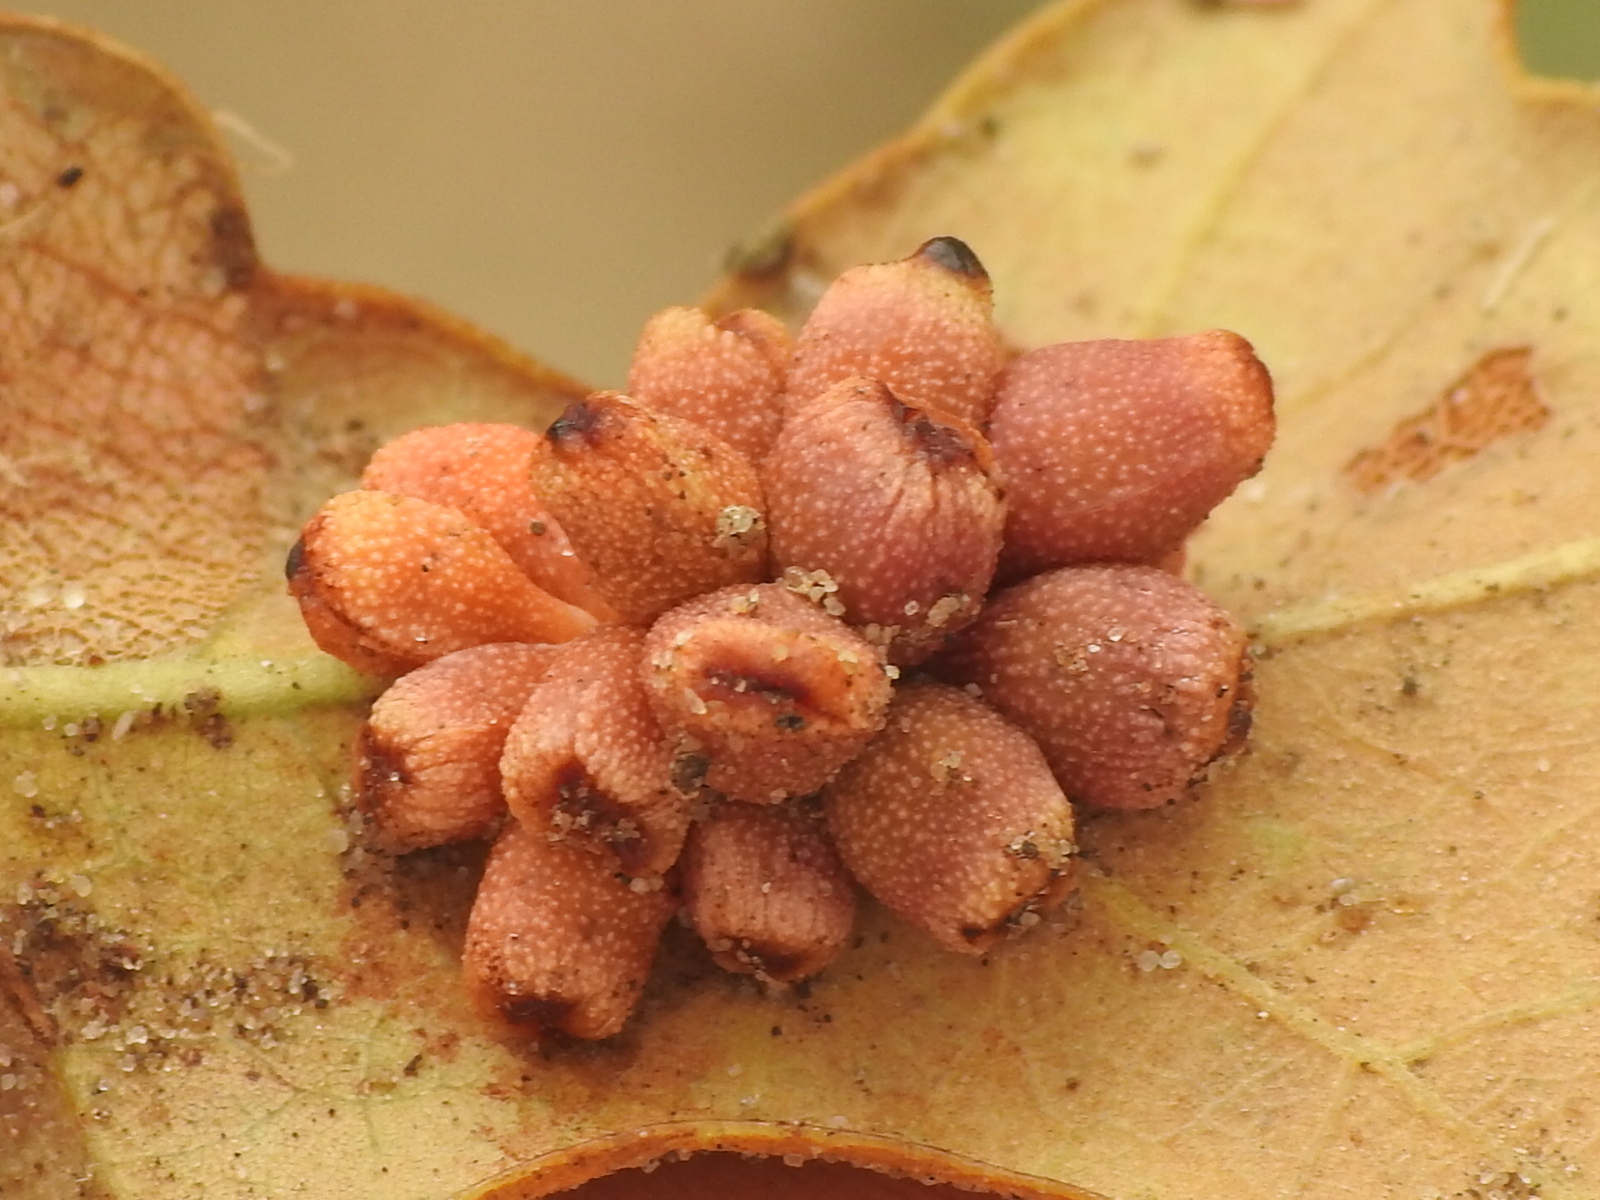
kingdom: Animalia
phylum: Arthropoda
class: Insecta
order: Hymenoptera
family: Cynipidae
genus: Andricus
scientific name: Andricus lustrans
